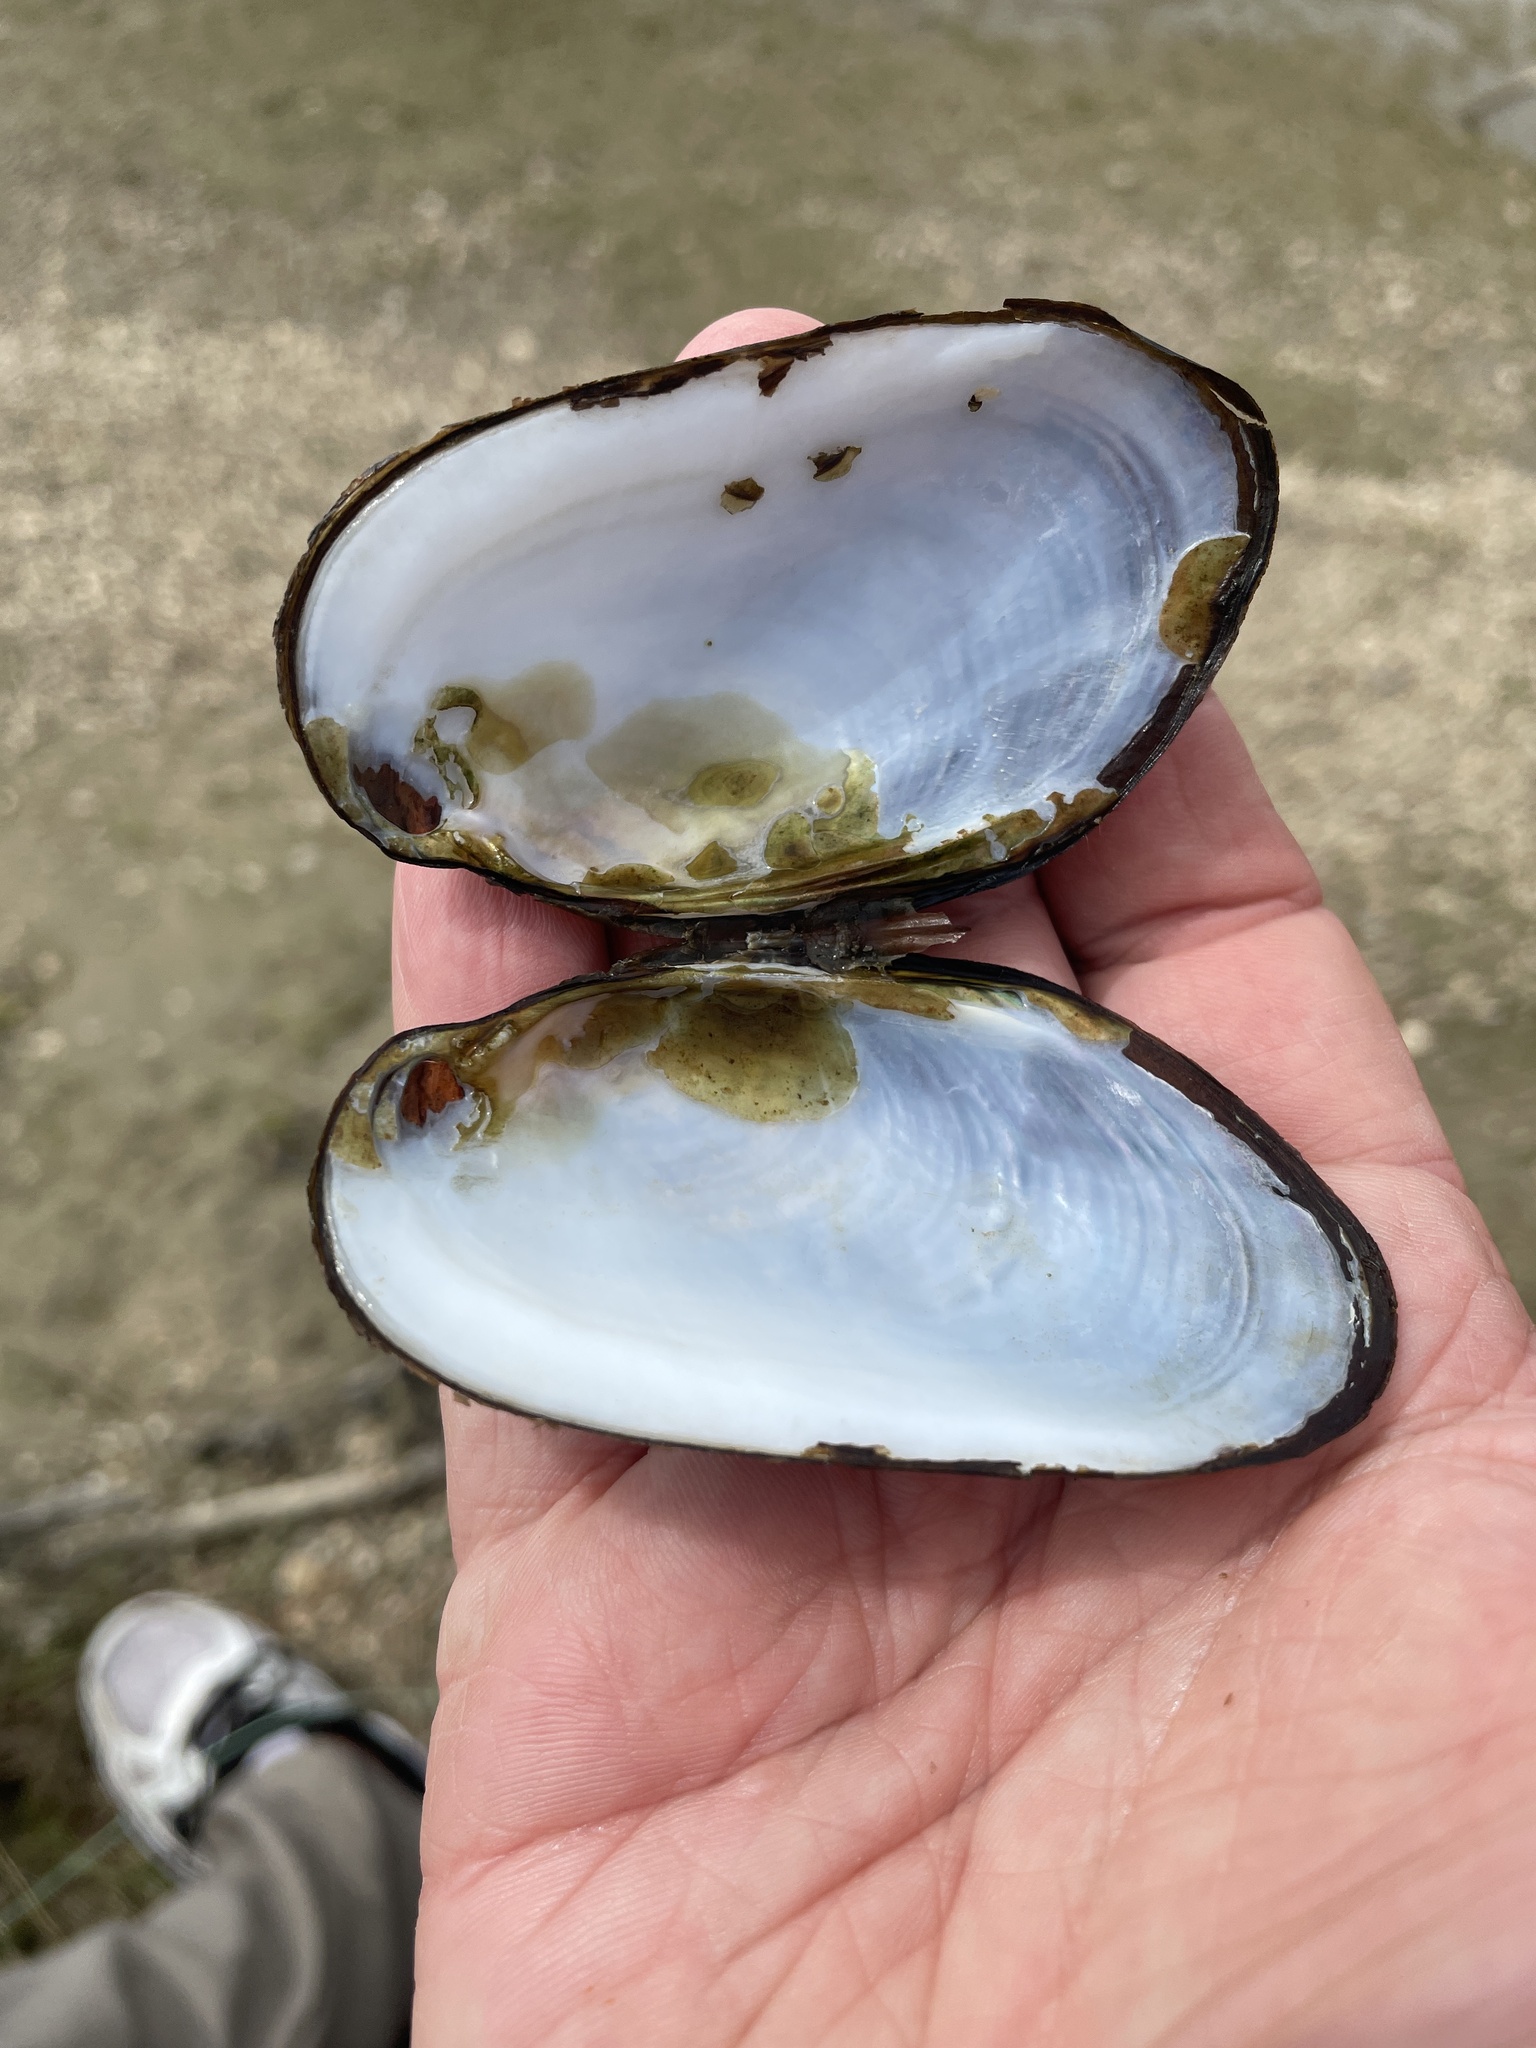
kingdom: Animalia
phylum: Mollusca
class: Bivalvia
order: Unionida
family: Hyriidae
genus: Echyridella
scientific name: Echyridella menziesii
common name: New zealand freshwater mussel
